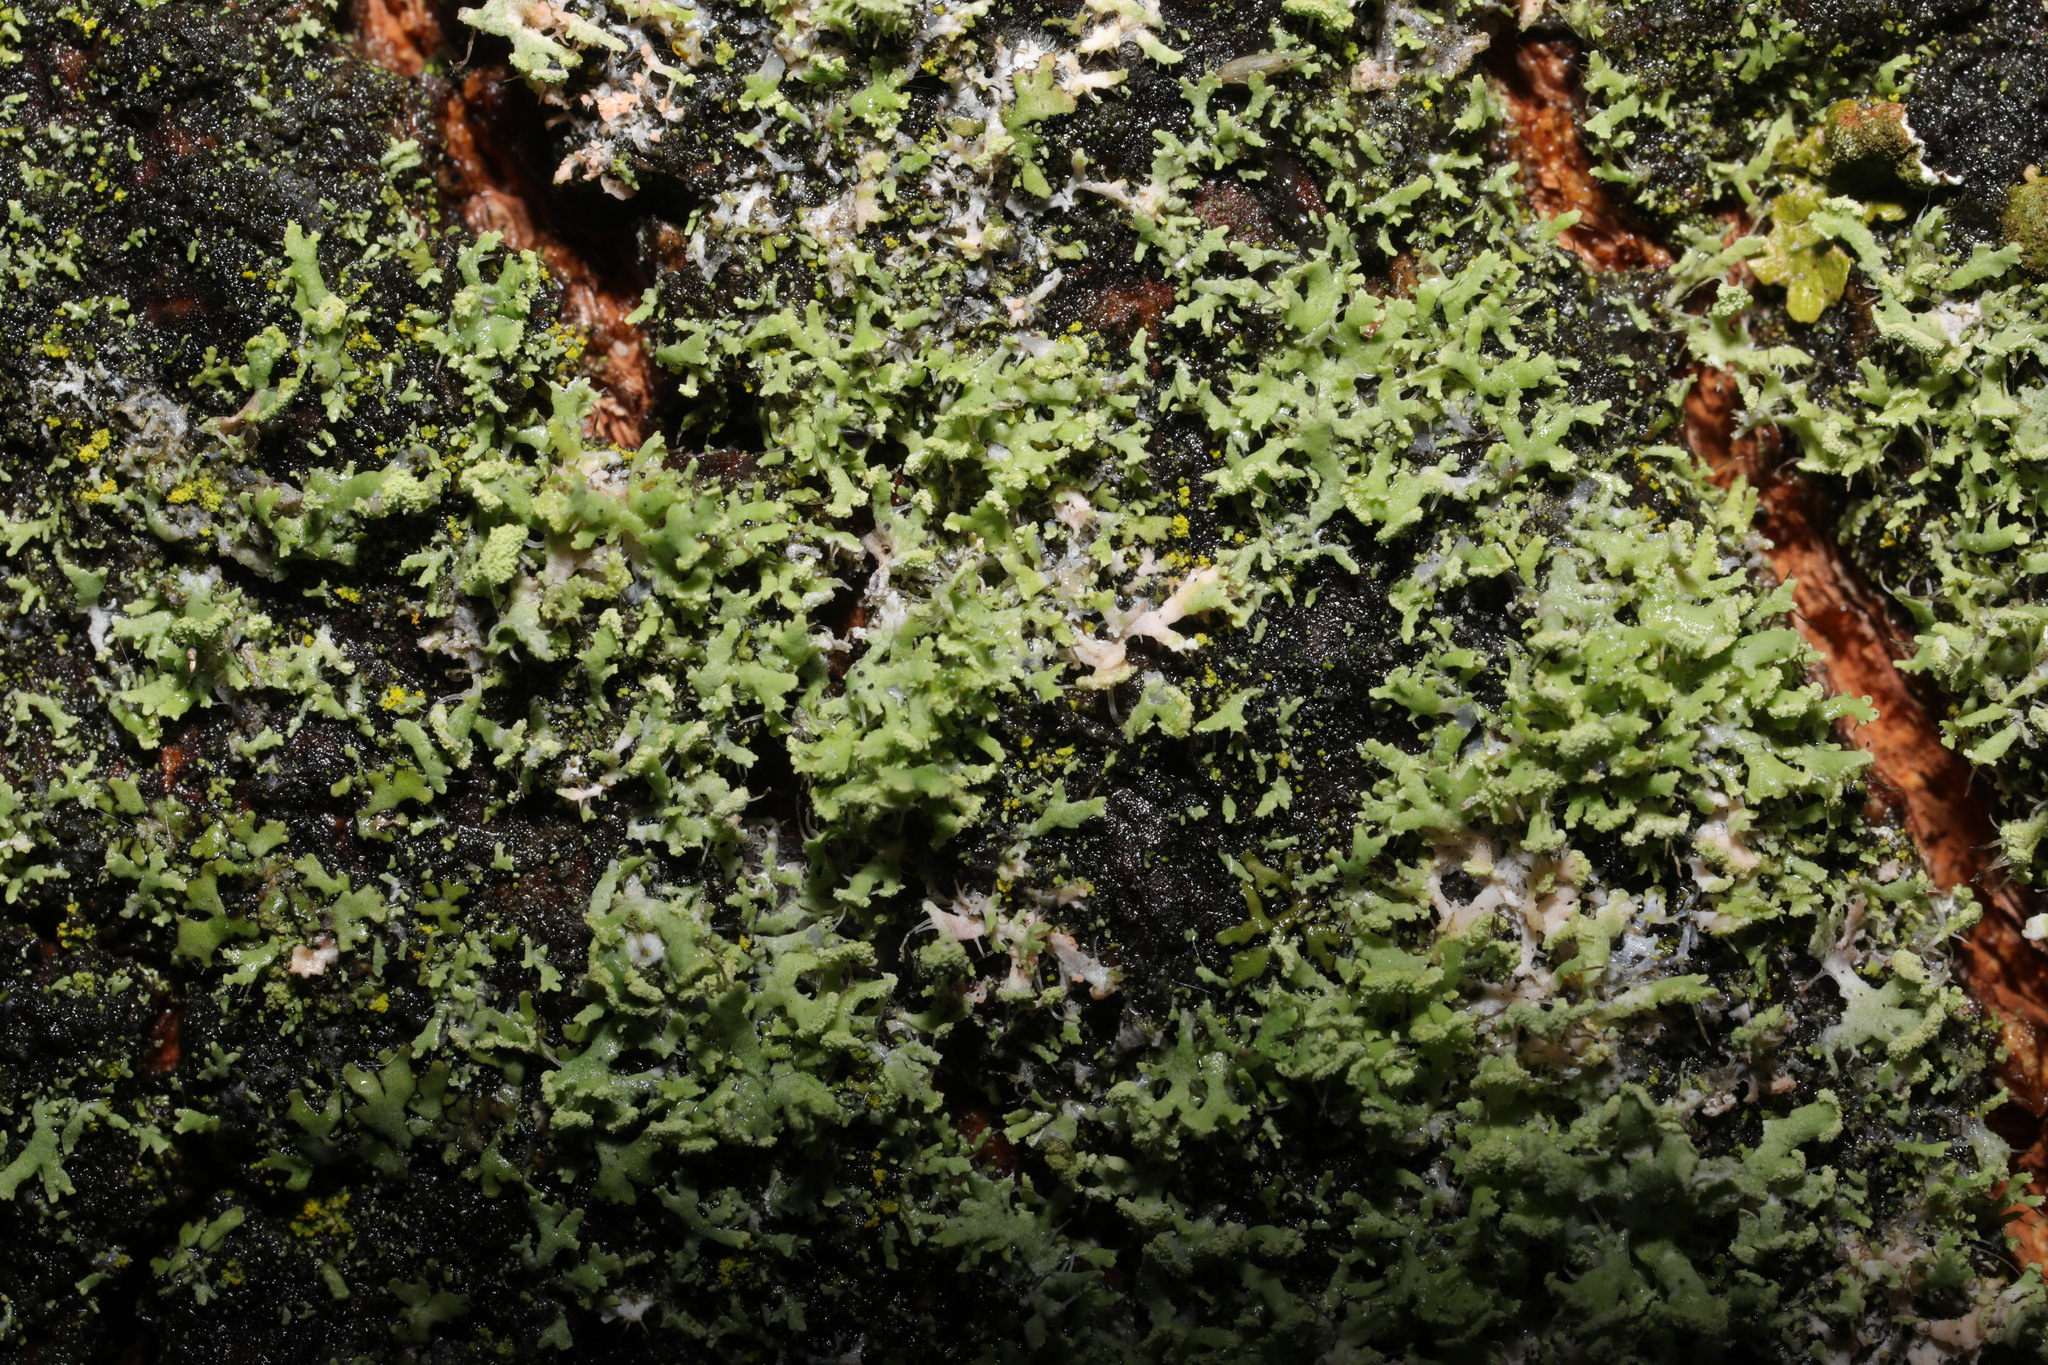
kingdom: Fungi
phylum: Ascomycota
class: Lecanoromycetes
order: Caliciales
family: Physciaceae
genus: Physcia
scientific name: Physcia tenella
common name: Fringed rosette lichen
